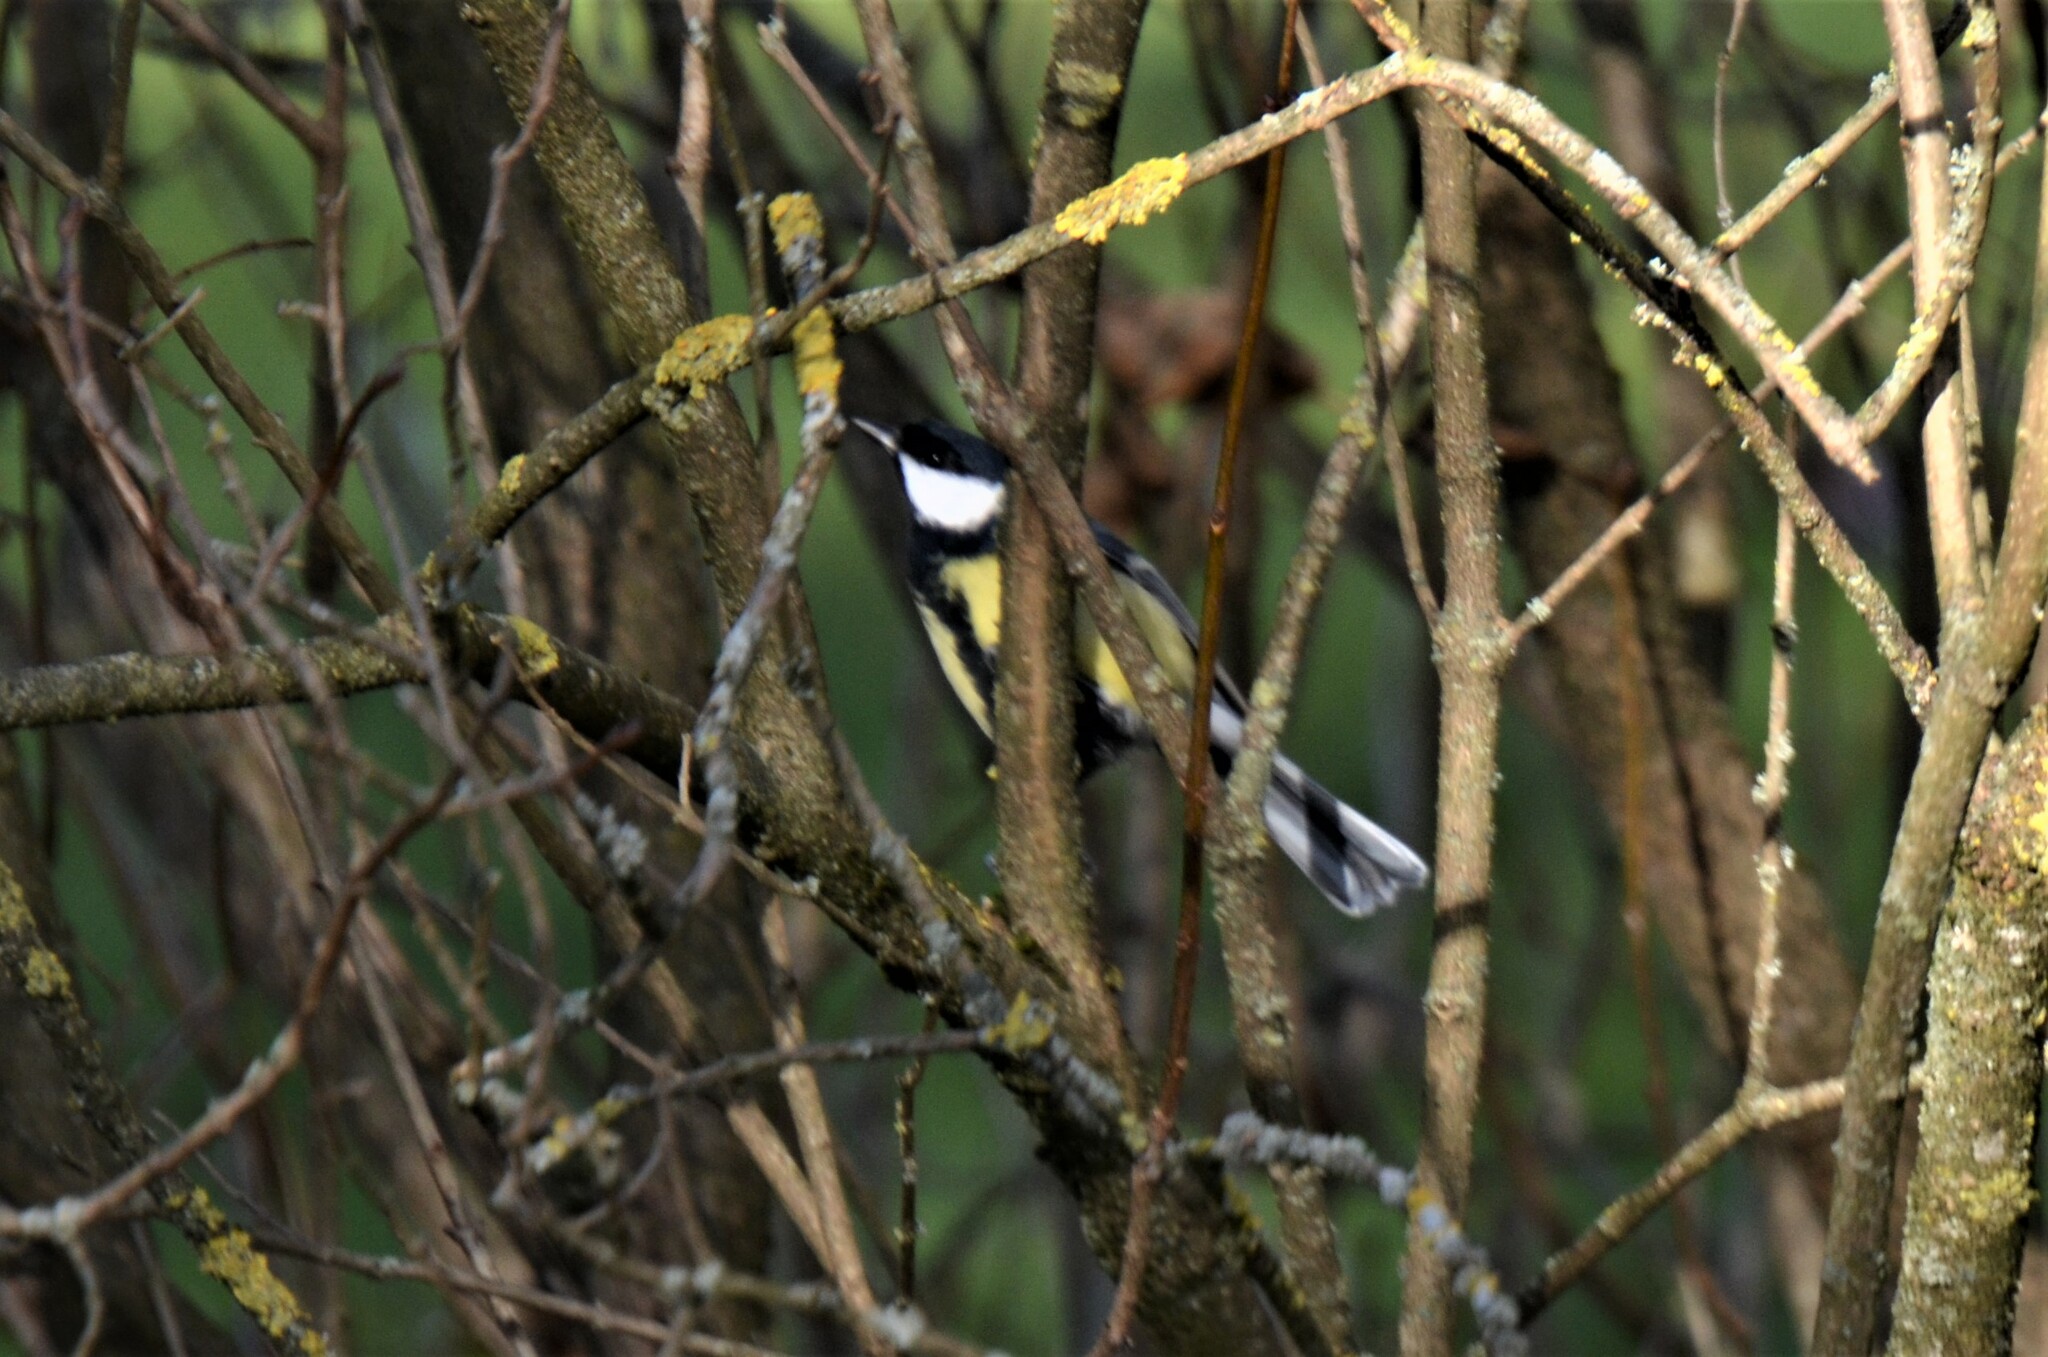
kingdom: Animalia
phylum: Chordata
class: Aves
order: Passeriformes
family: Paridae
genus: Parus
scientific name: Parus major
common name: Great tit
